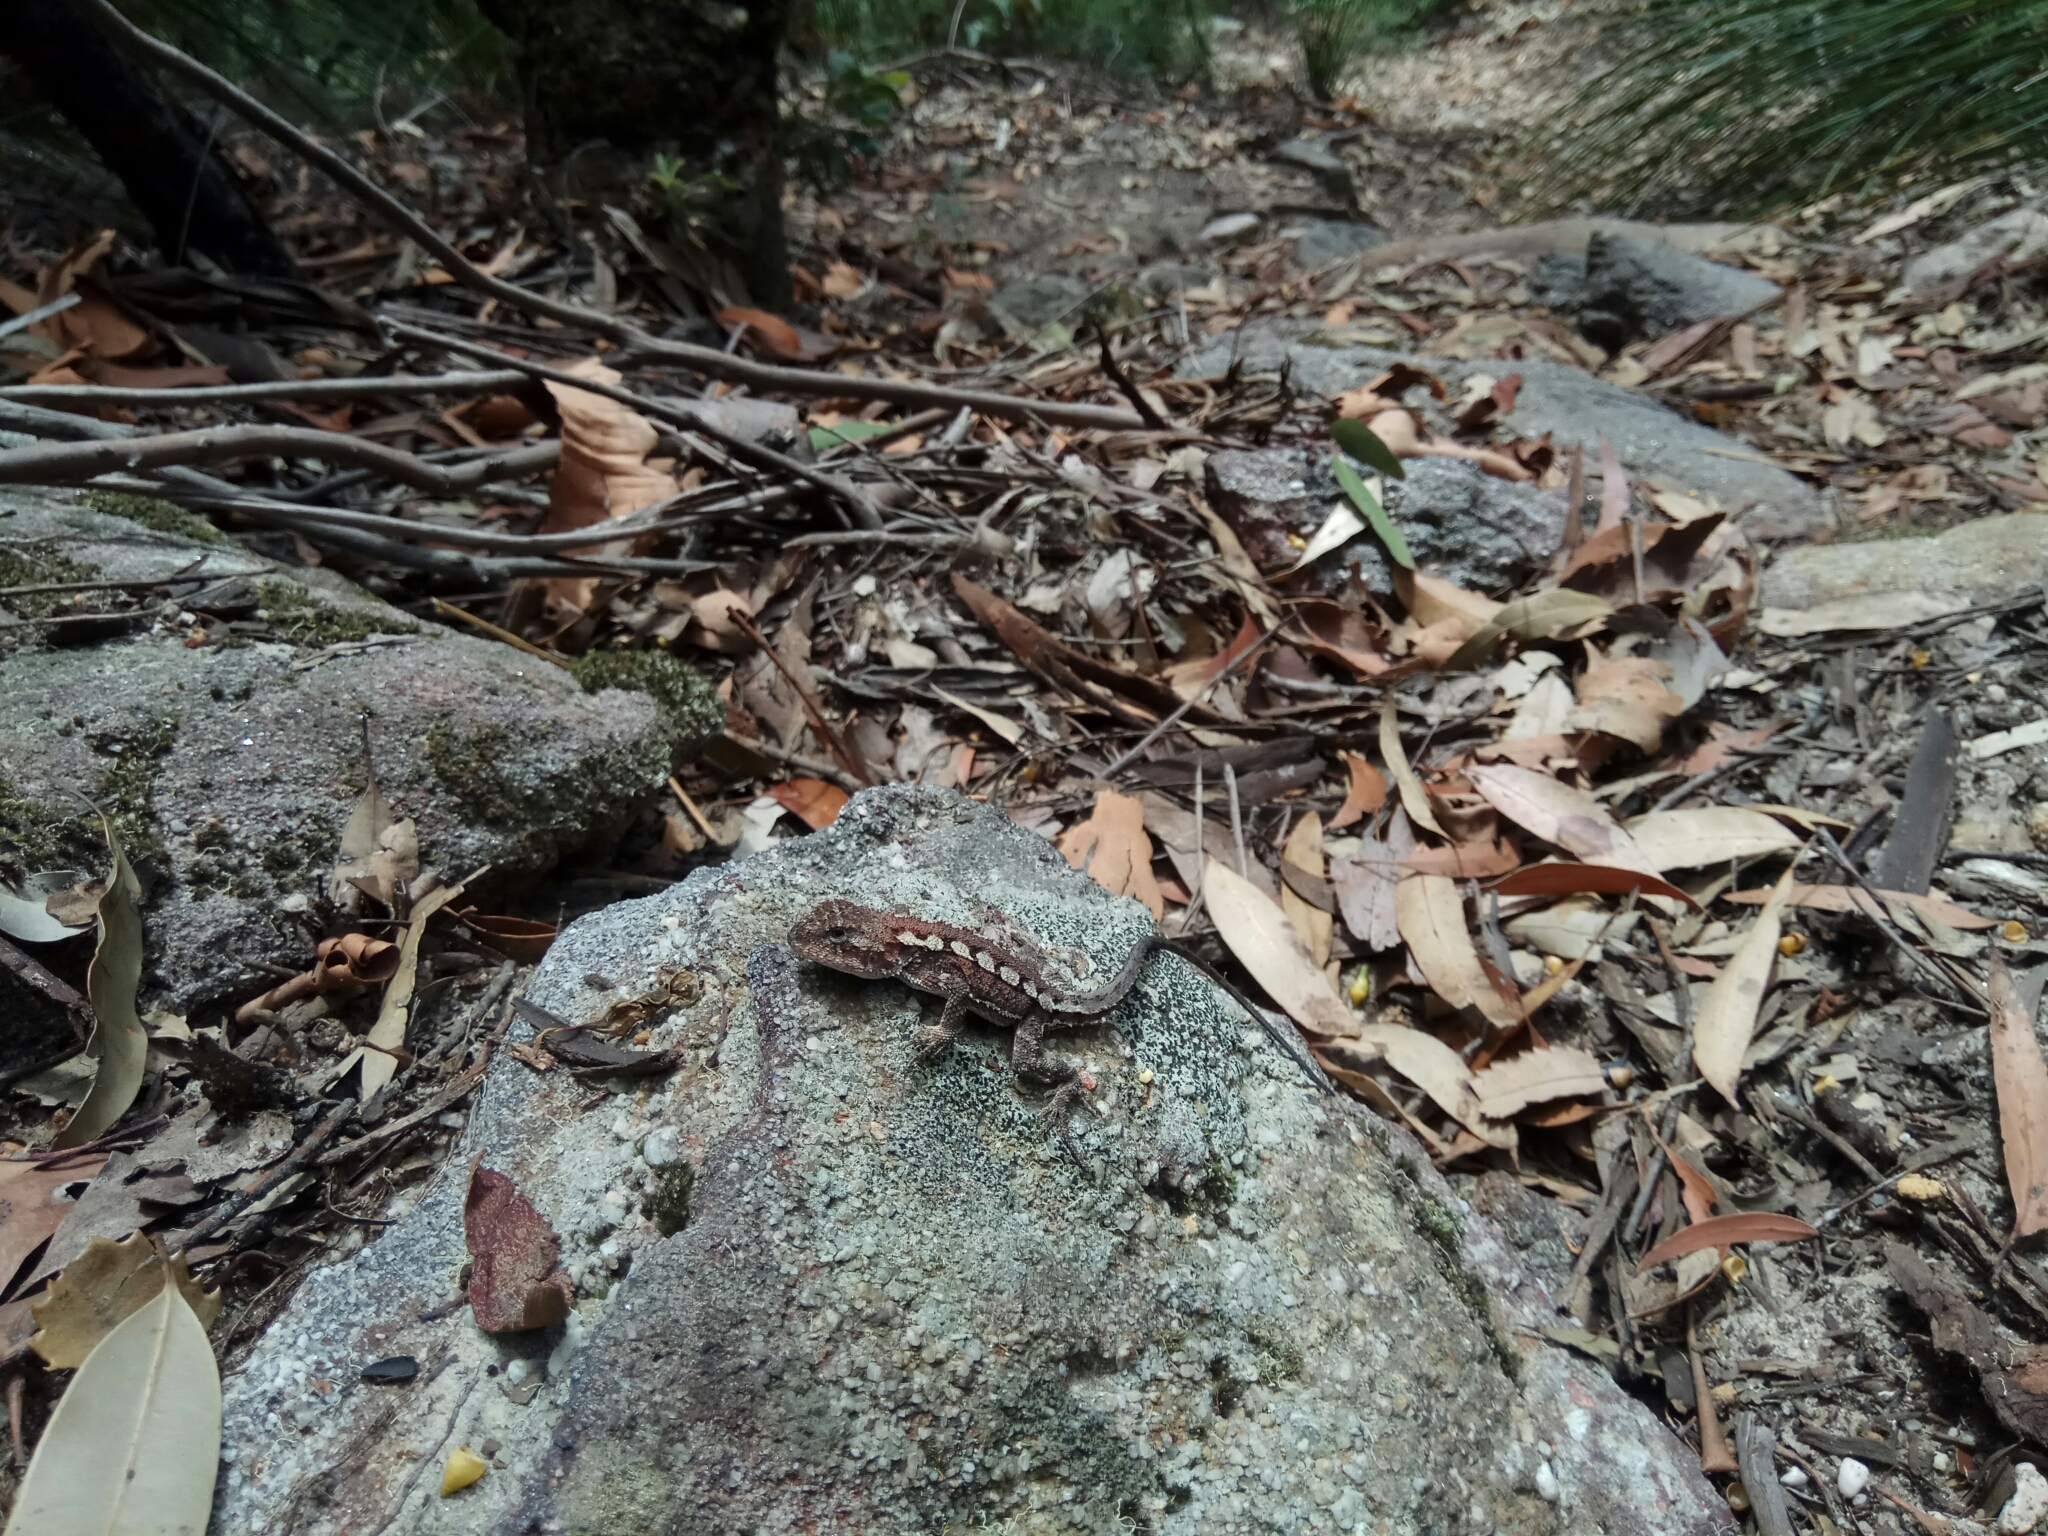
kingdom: Animalia
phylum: Chordata
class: Squamata
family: Agamidae
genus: Rankinia
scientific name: Rankinia diemensis
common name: Mountain dragon
